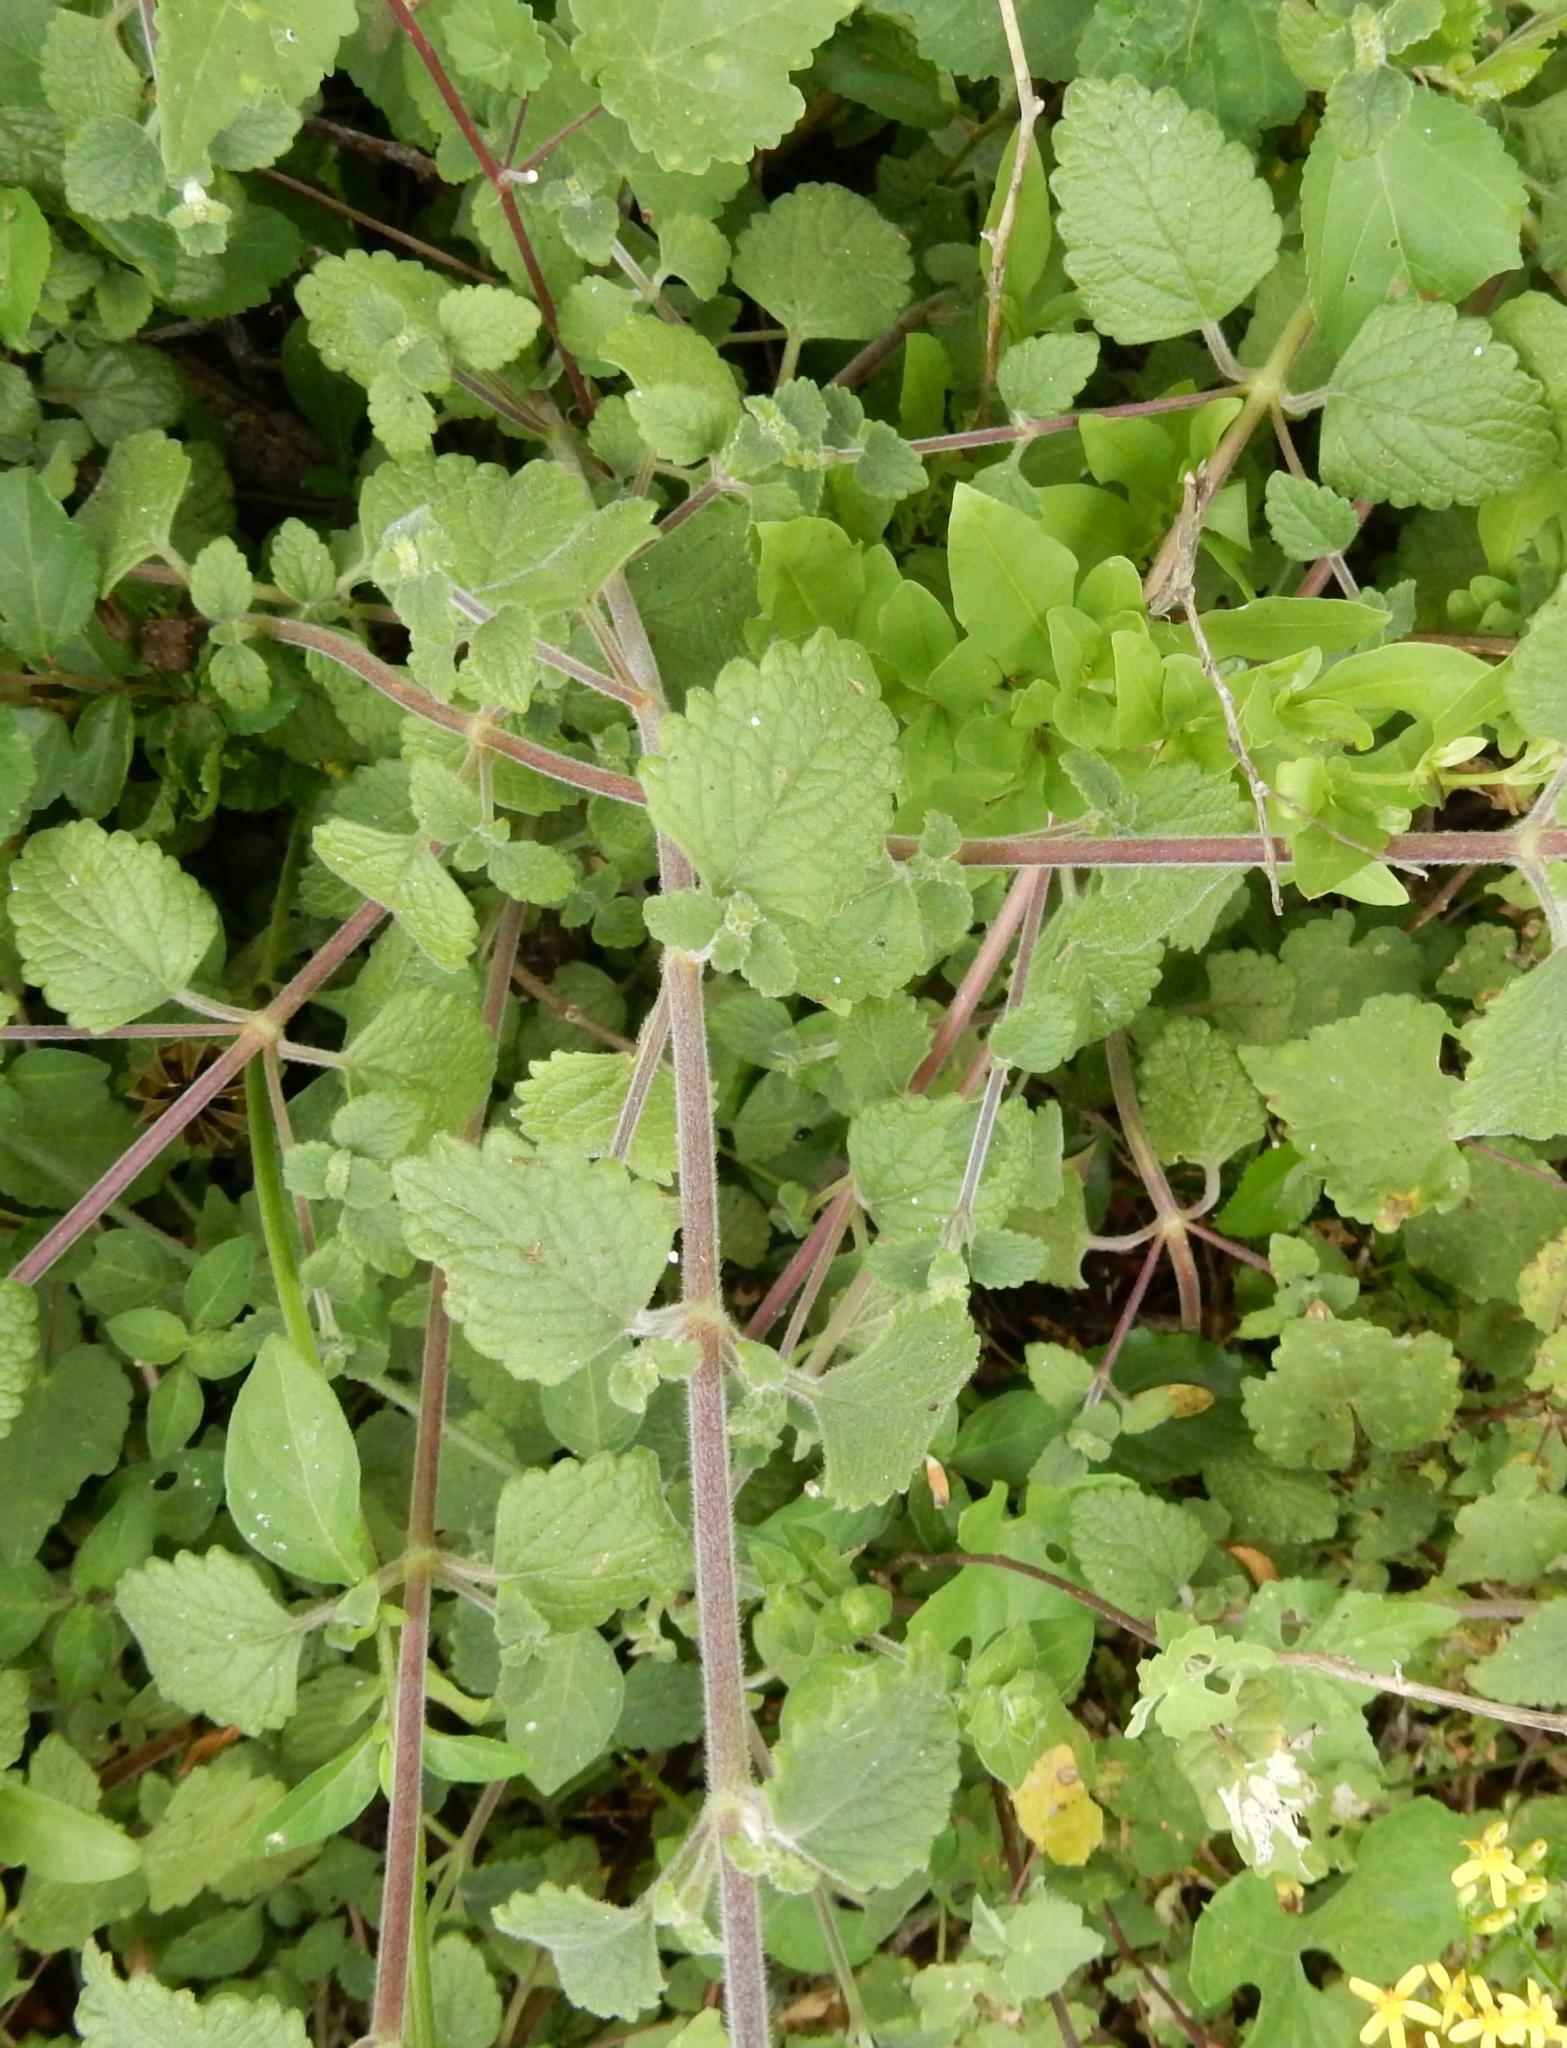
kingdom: Plantae
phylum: Tracheophyta
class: Magnoliopsida
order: Lamiales
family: Lamiaceae
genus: Coleus
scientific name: Coleus madagascariensis
